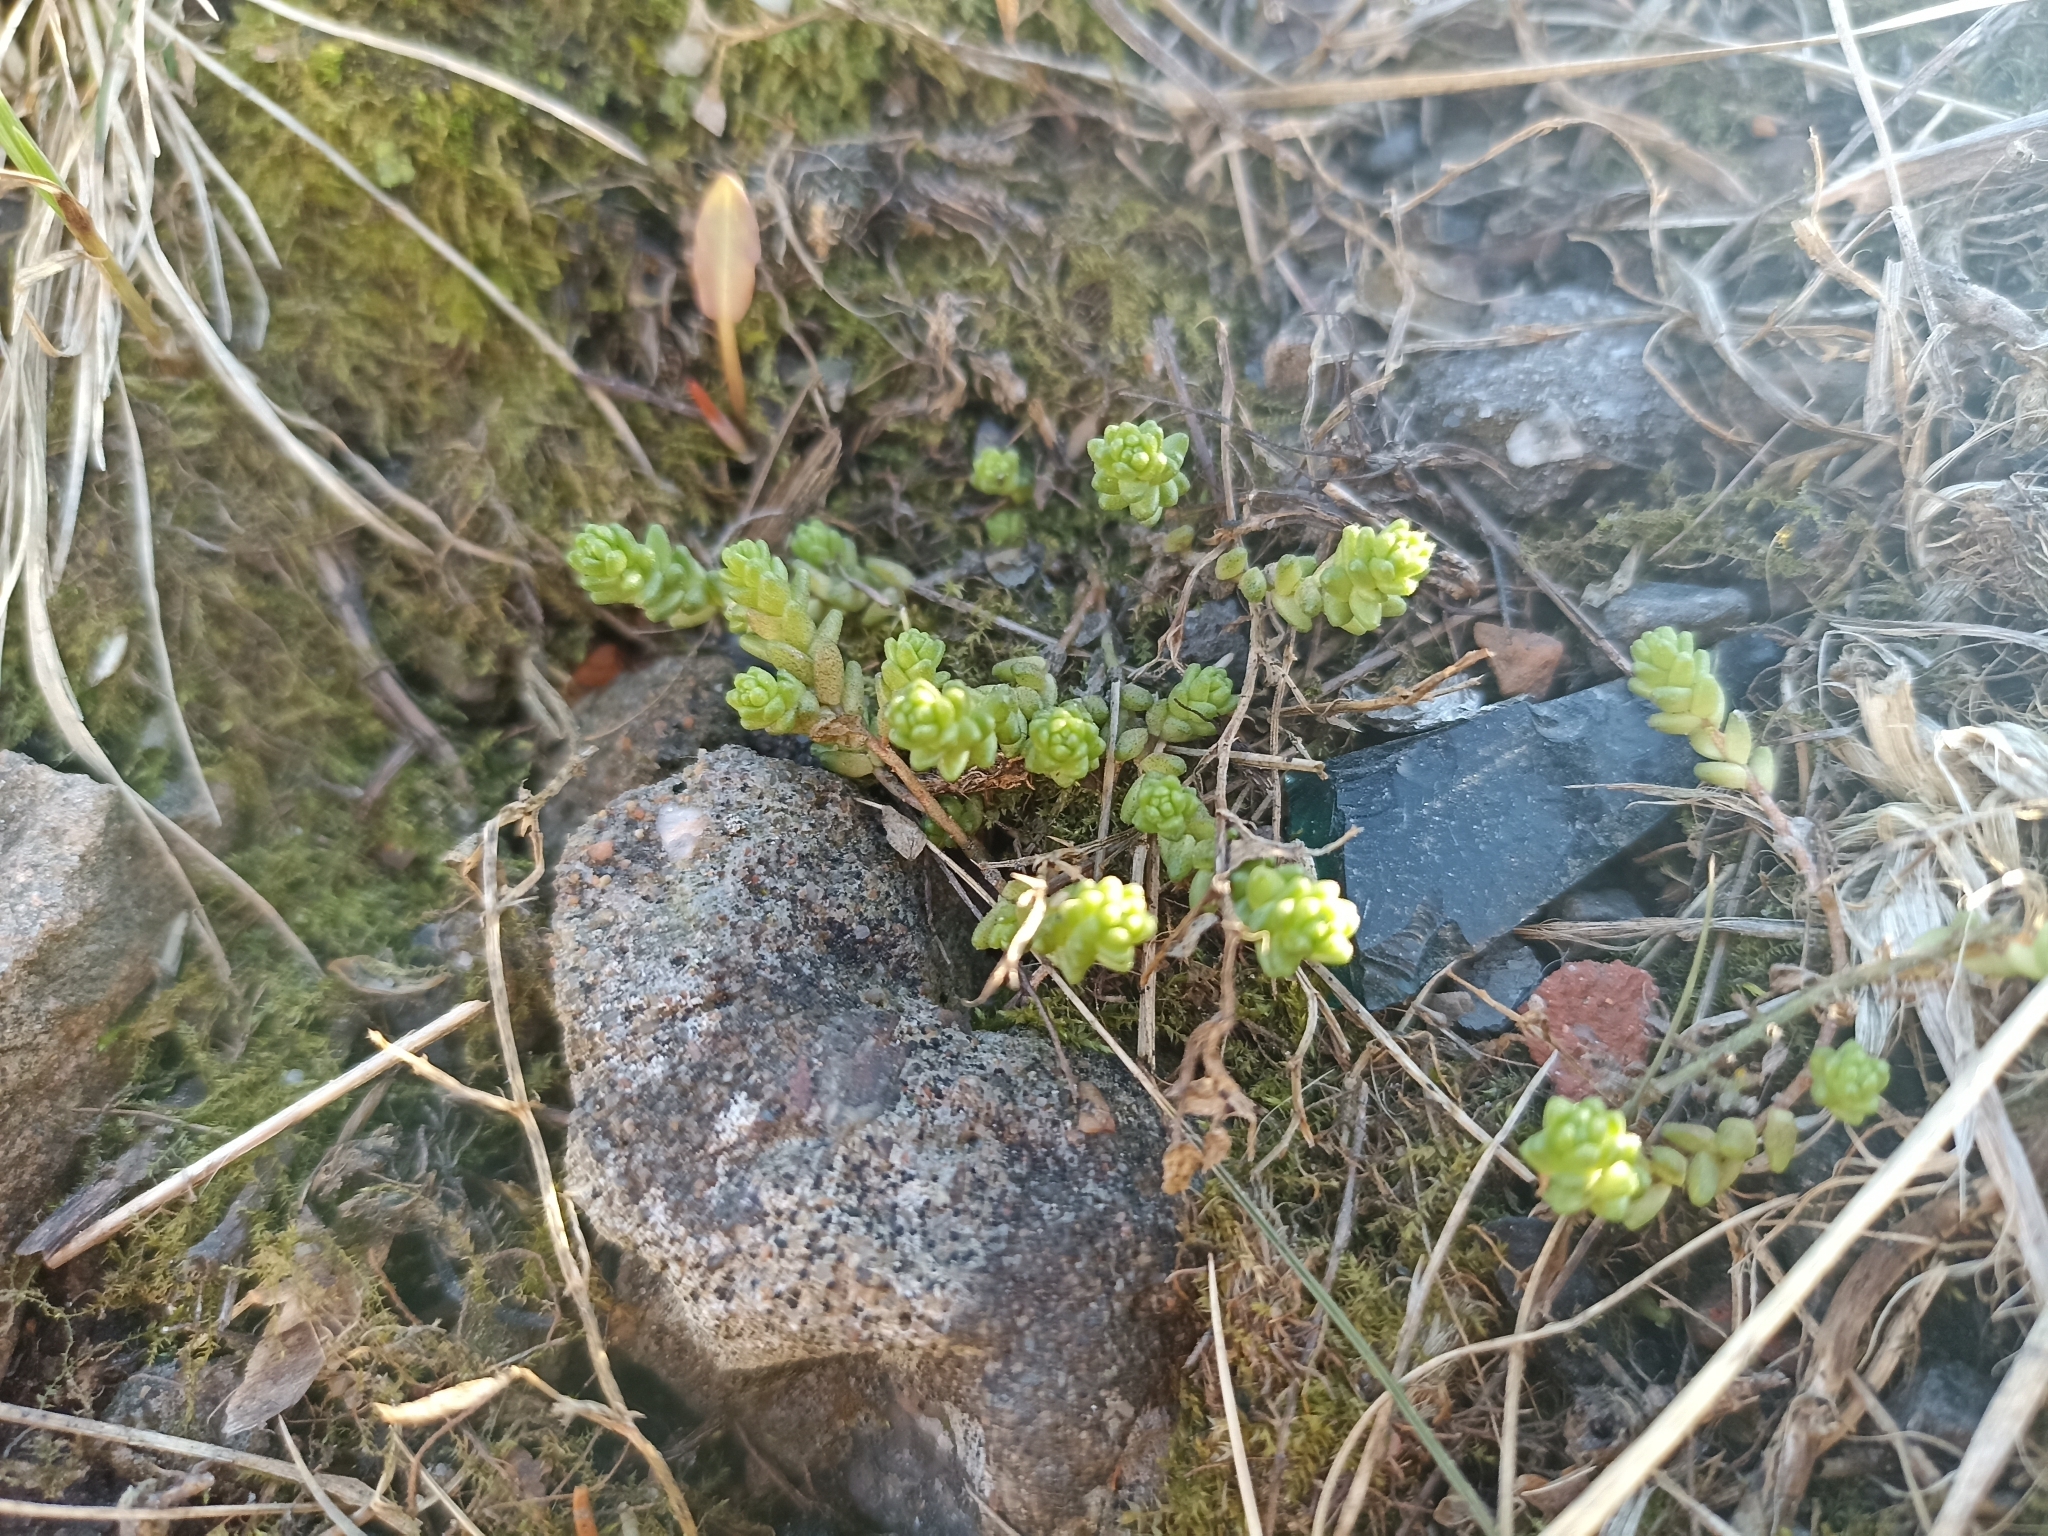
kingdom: Plantae
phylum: Tracheophyta
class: Magnoliopsida
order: Saxifragales
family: Crassulaceae
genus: Sedum
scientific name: Sedum acre
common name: Biting stonecrop
